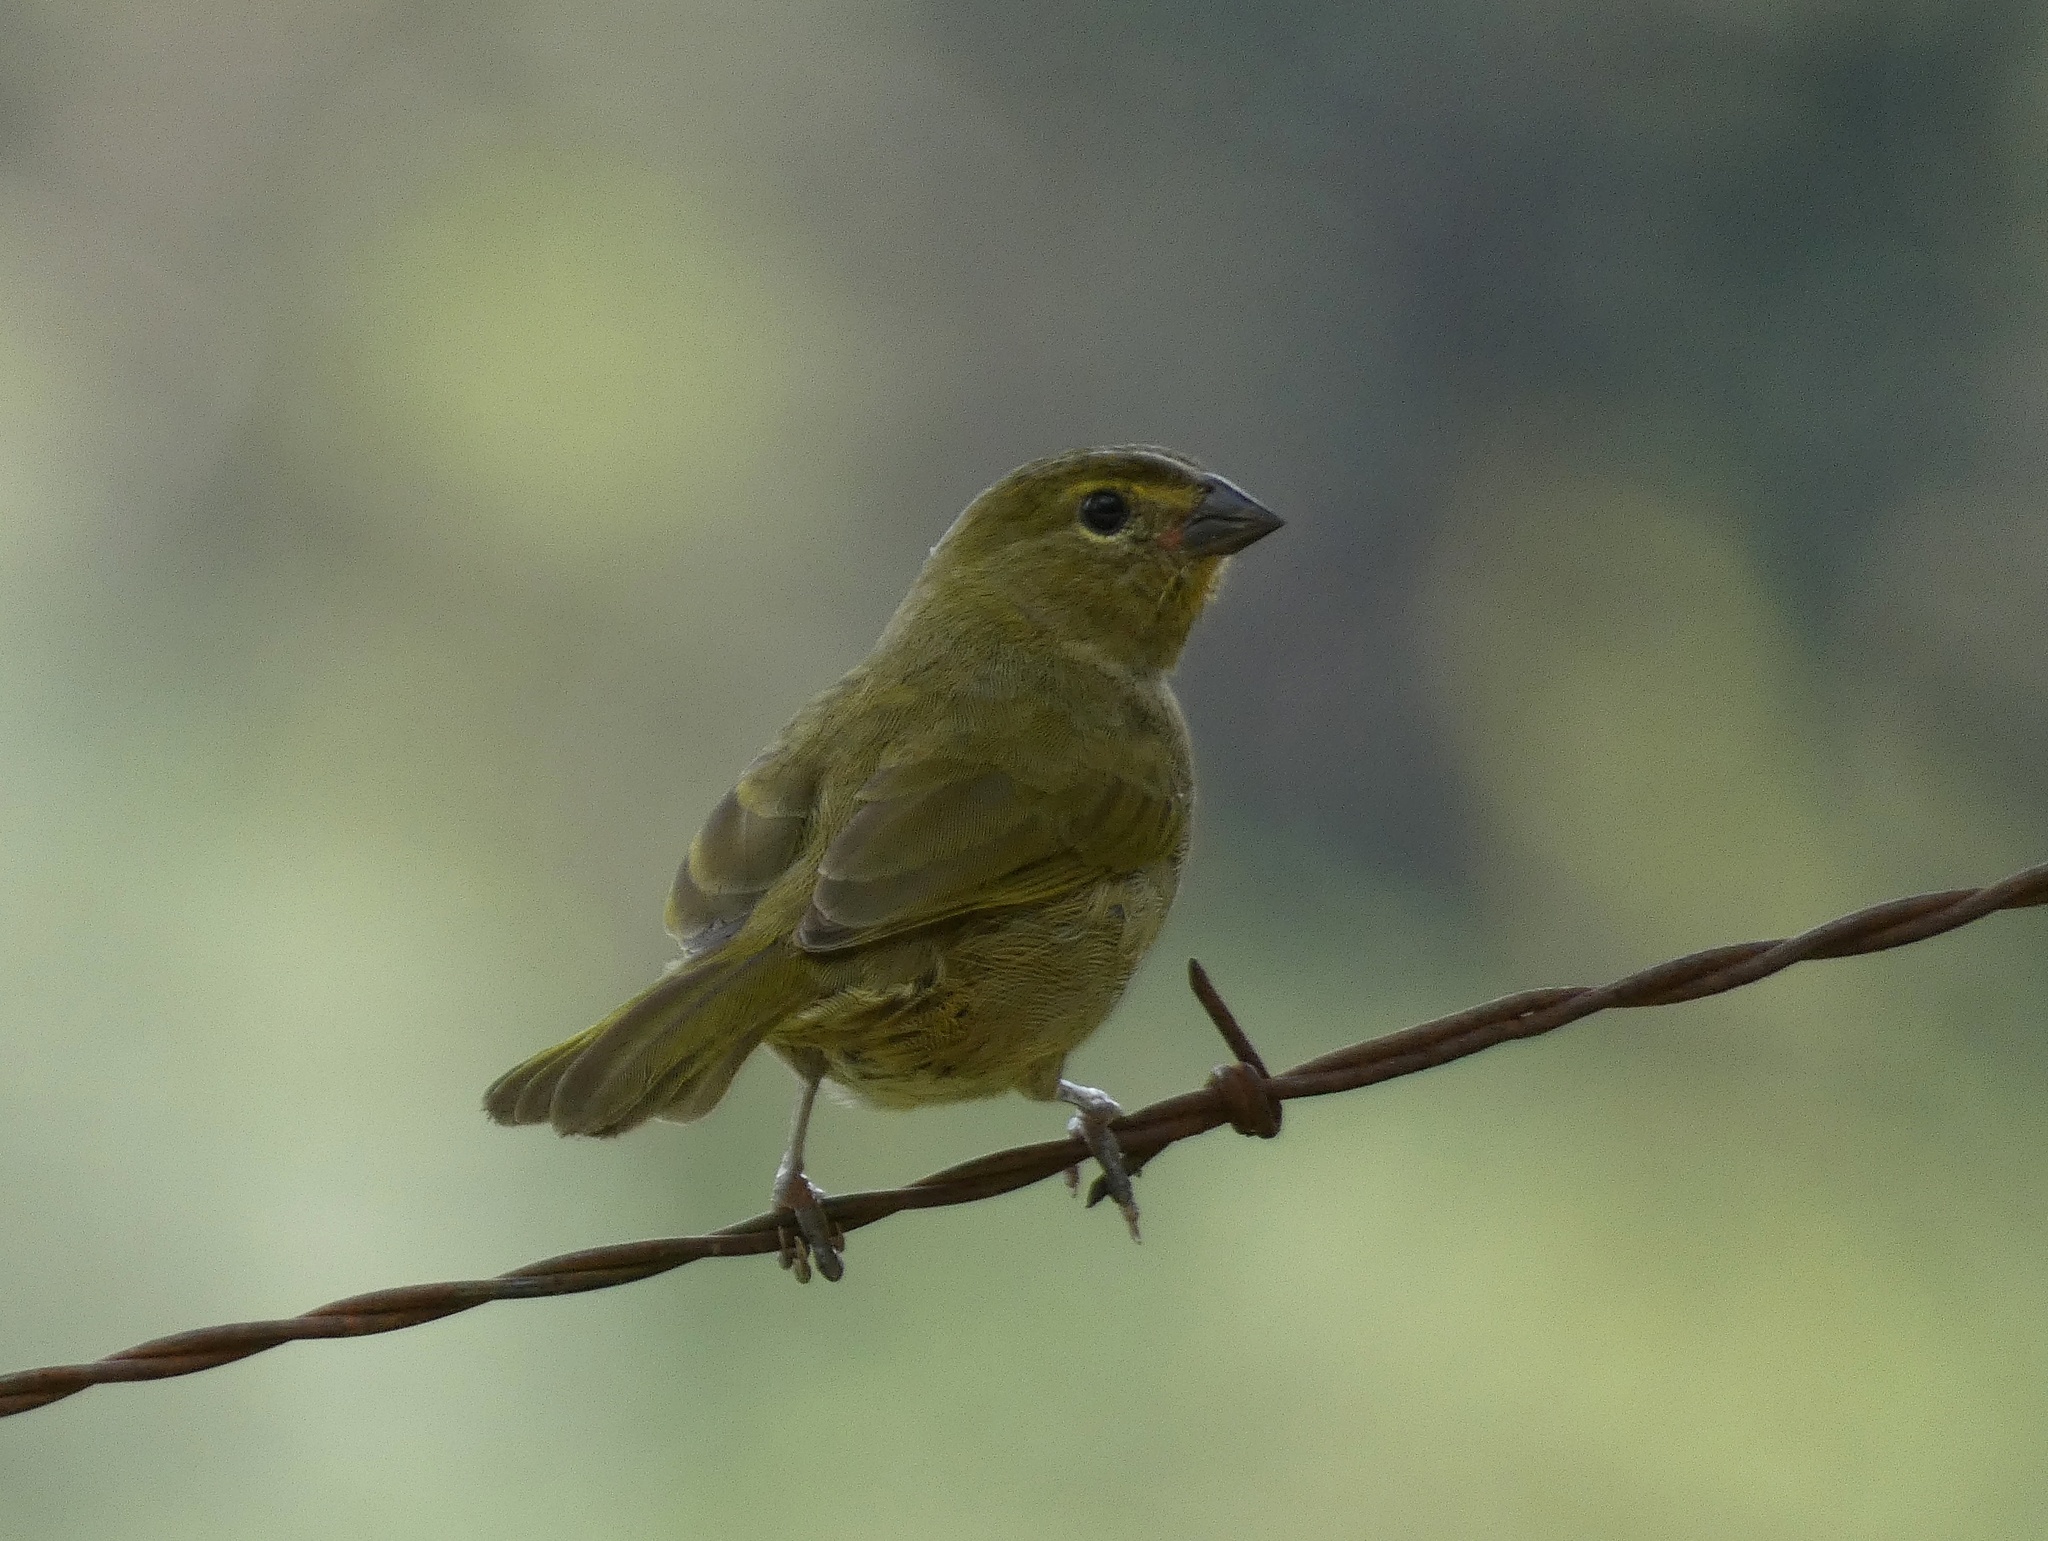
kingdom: Animalia
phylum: Chordata
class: Aves
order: Passeriformes
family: Thraupidae
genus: Tiaris
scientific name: Tiaris olivaceus
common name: Yellow-faced grassquit
